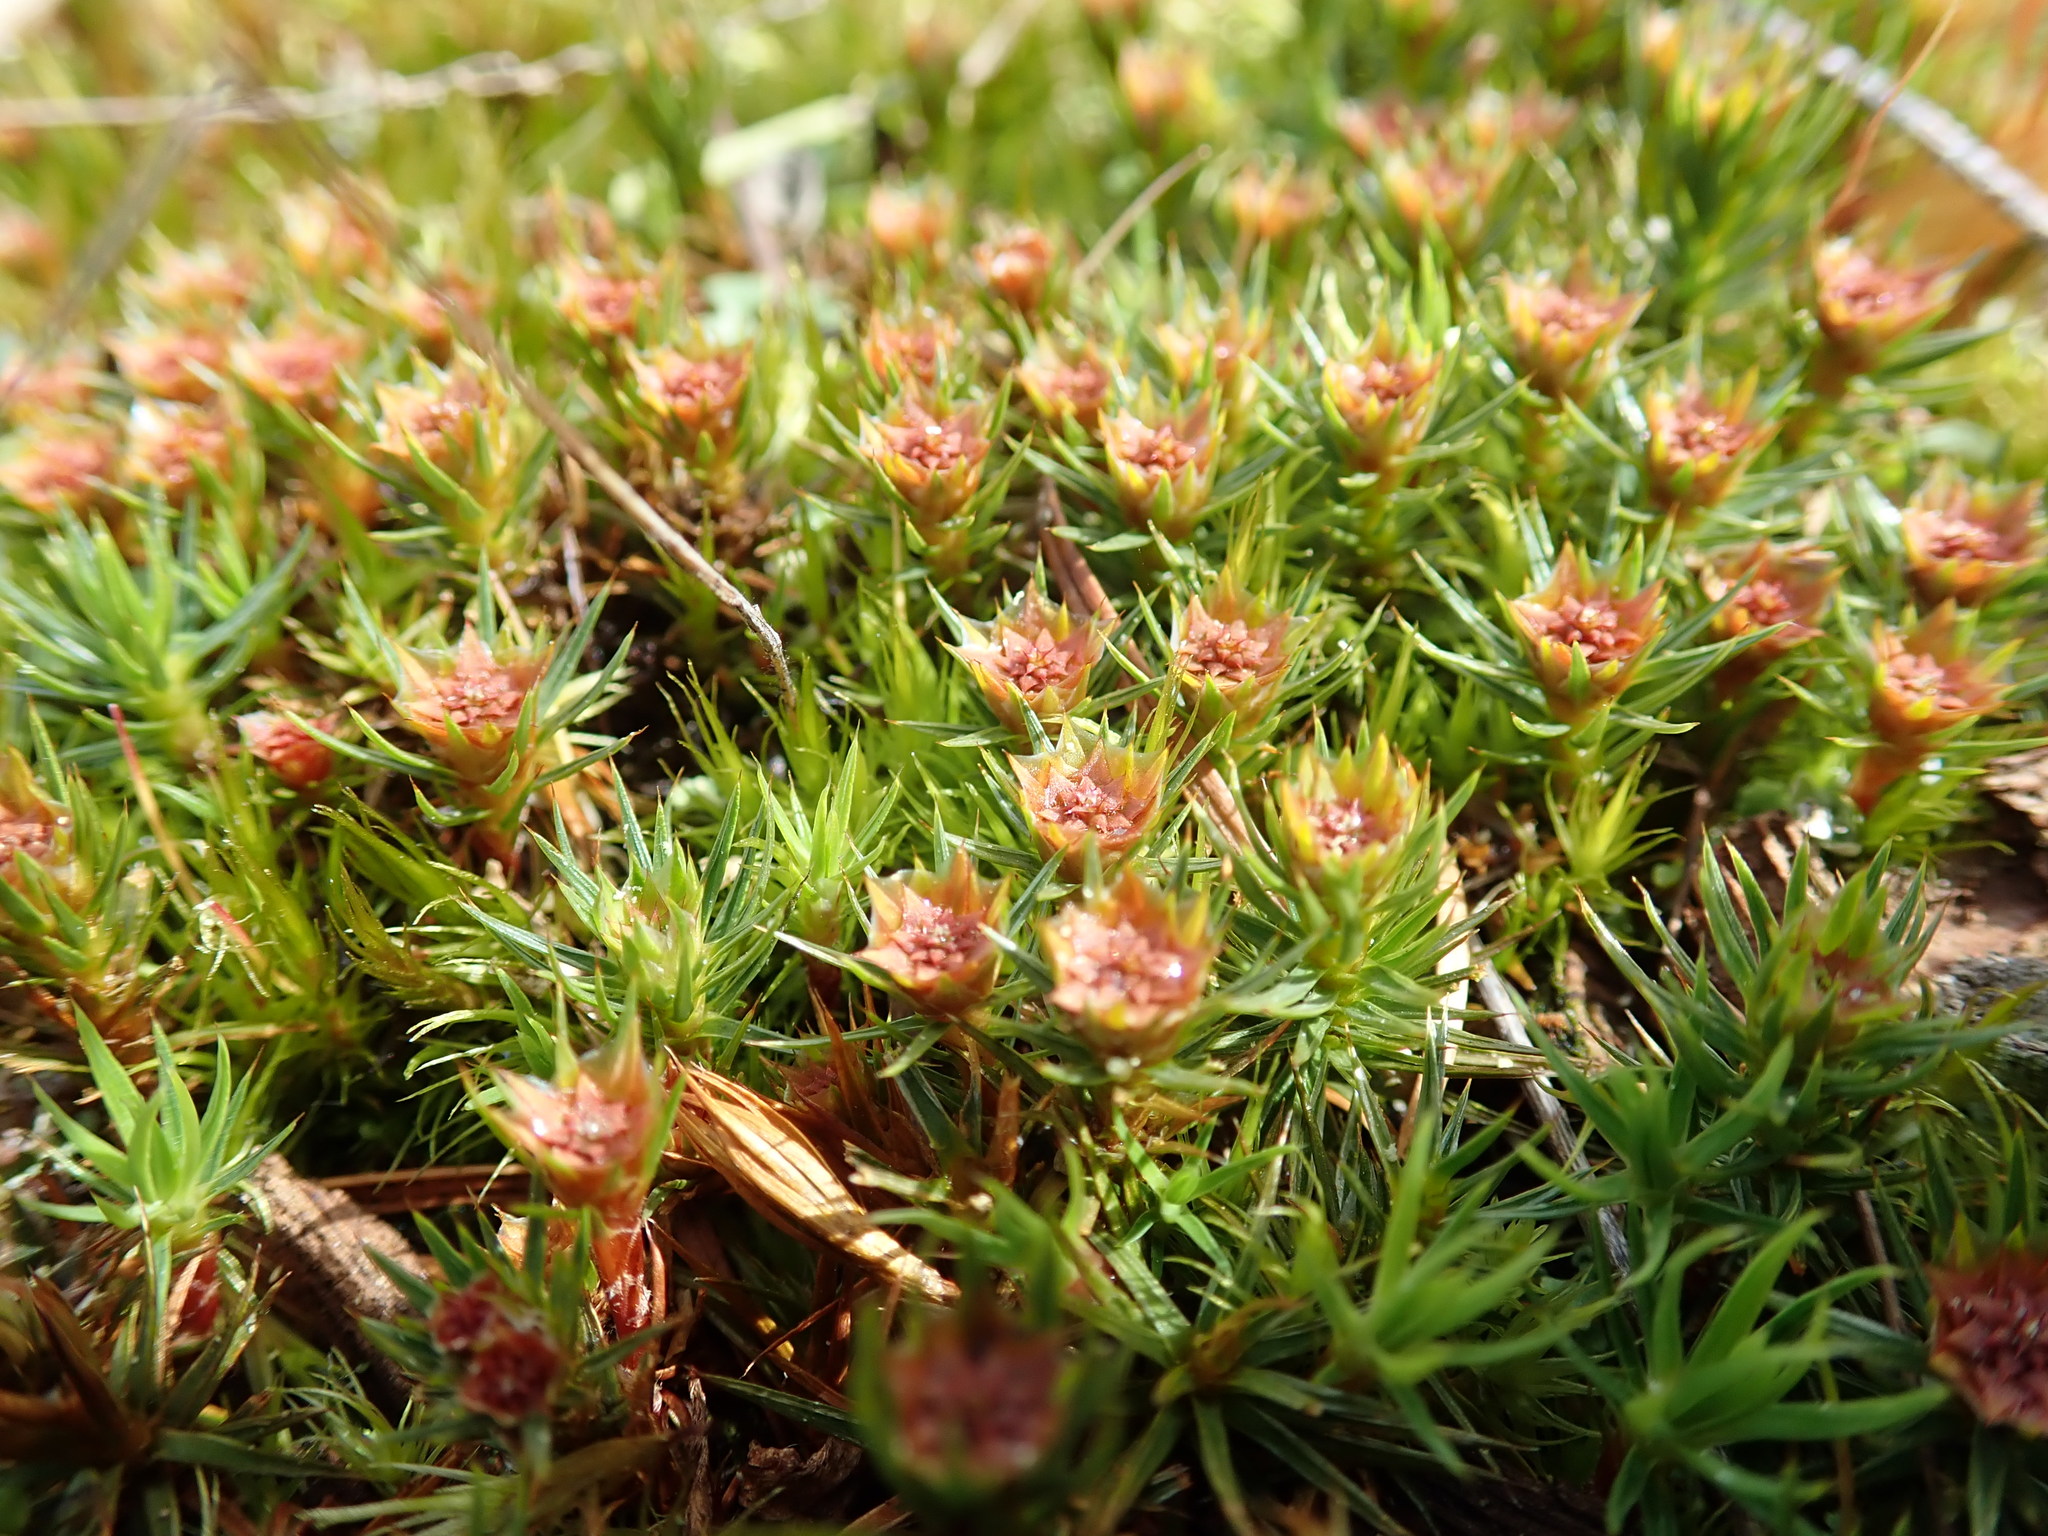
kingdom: Plantae
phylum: Bryophyta
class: Polytrichopsida
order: Polytrichales
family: Polytrichaceae
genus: Polytrichum
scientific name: Polytrichum juniperinum
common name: Juniper haircap moss
